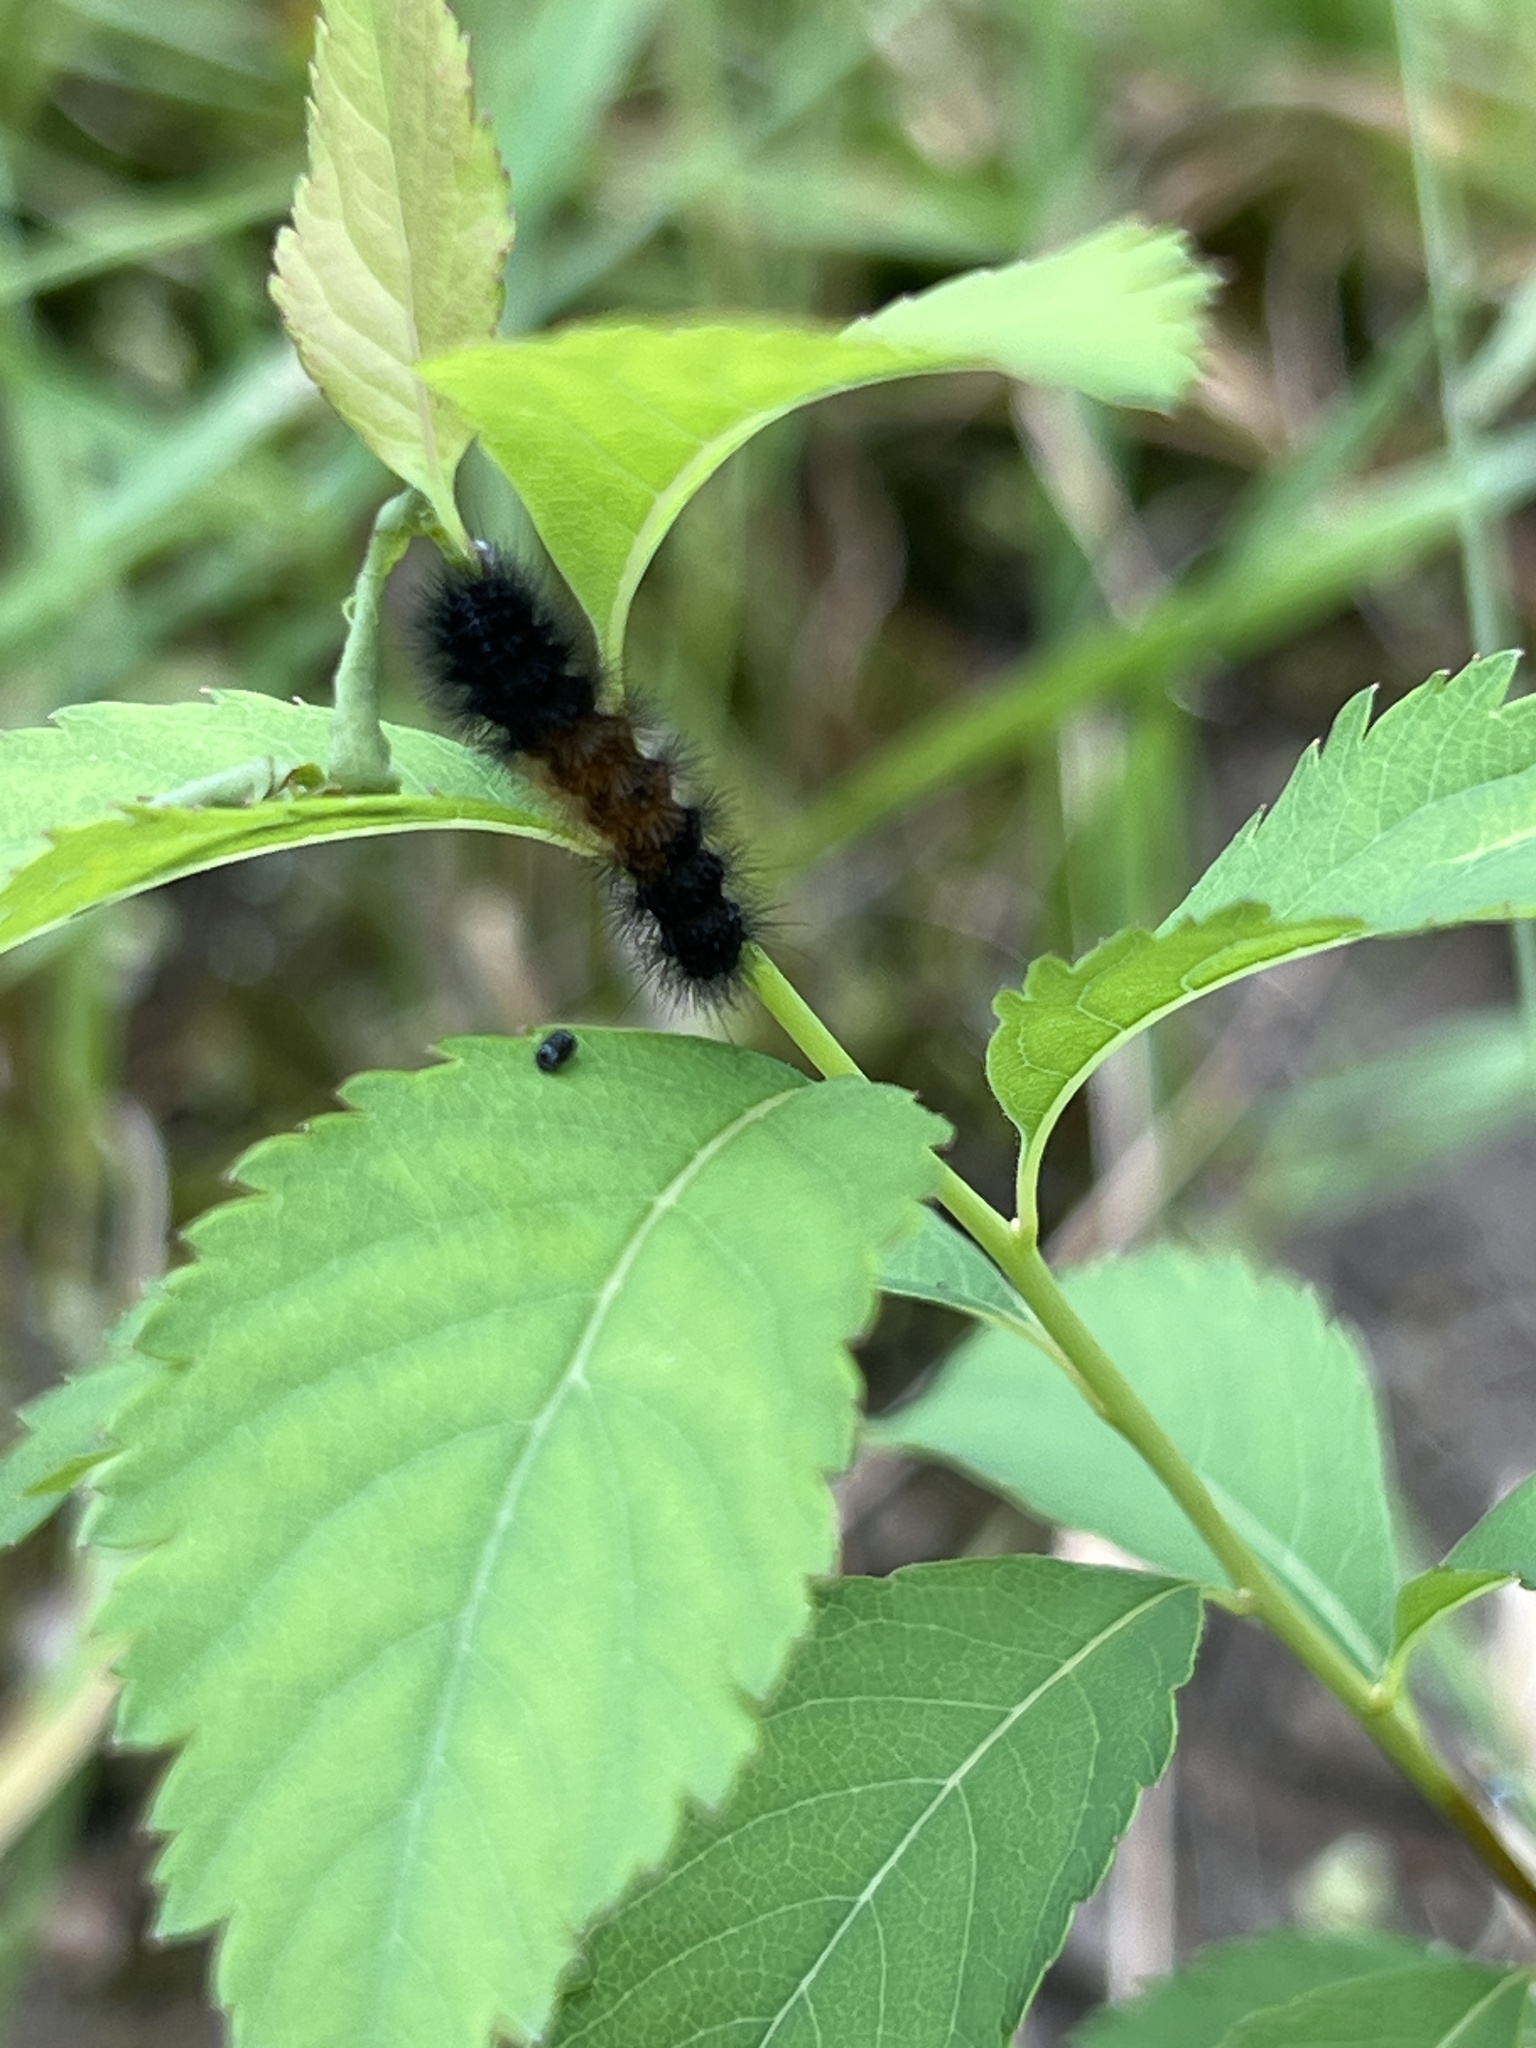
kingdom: Animalia
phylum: Arthropoda
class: Insecta
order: Lepidoptera
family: Erebidae
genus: Pyrrharctia
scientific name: Pyrrharctia isabella
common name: Isabella tiger moth
